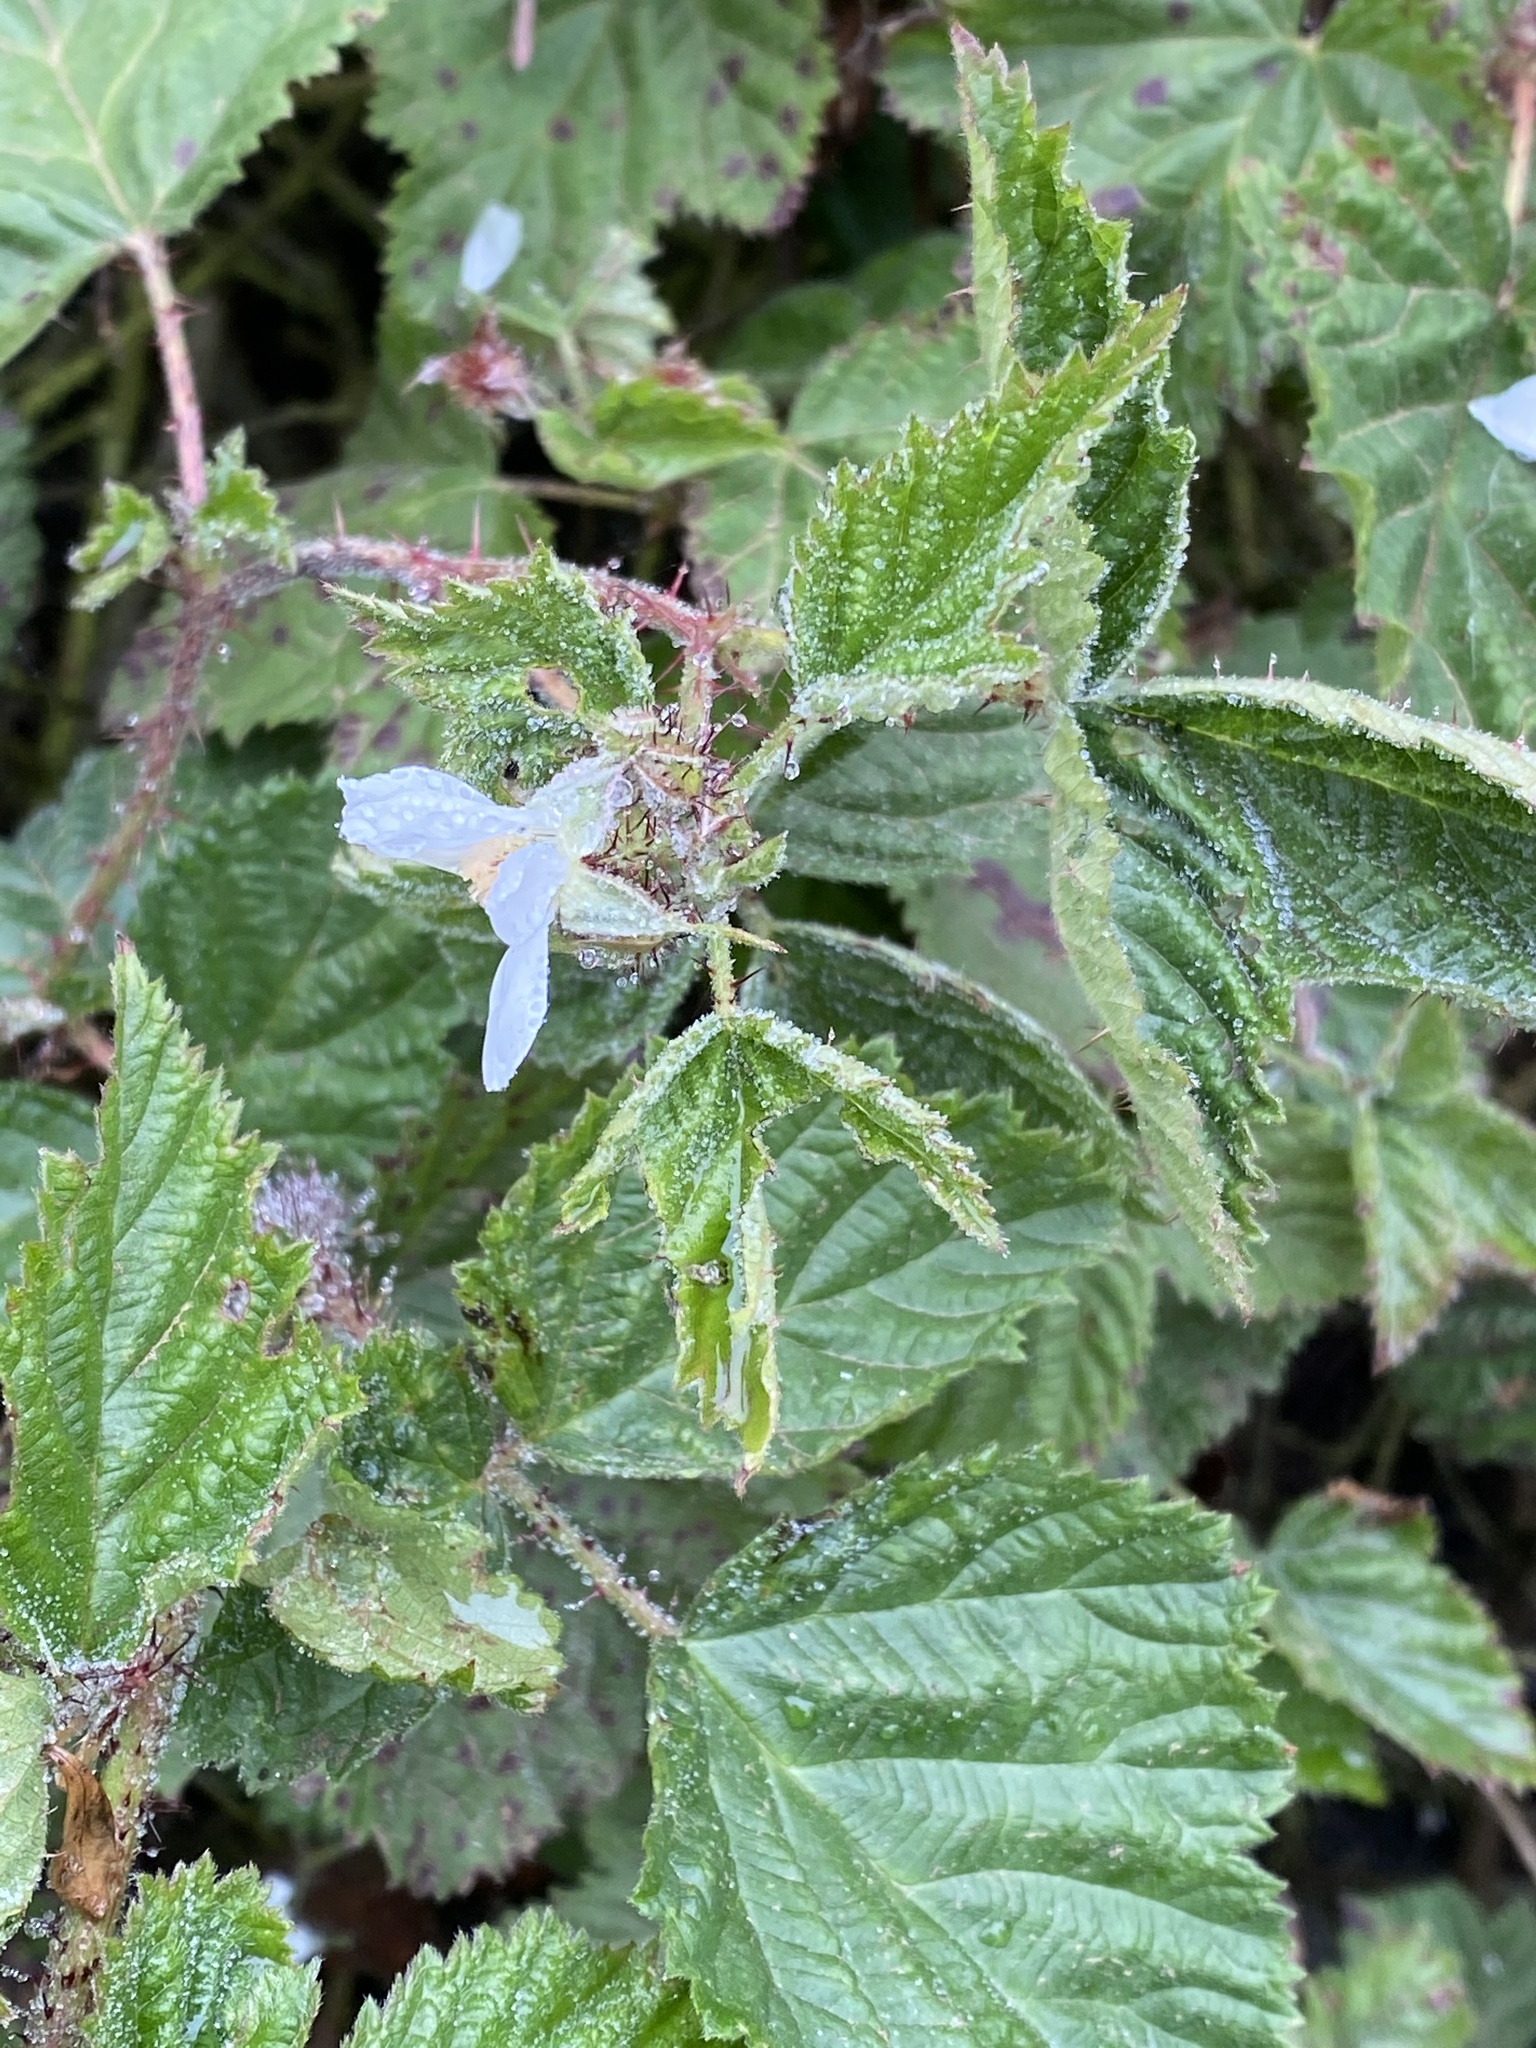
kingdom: Plantae
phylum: Tracheophyta
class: Magnoliopsida
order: Rosales
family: Rosaceae
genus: Rubus
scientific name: Rubus ursinus
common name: Pacific blackberry
